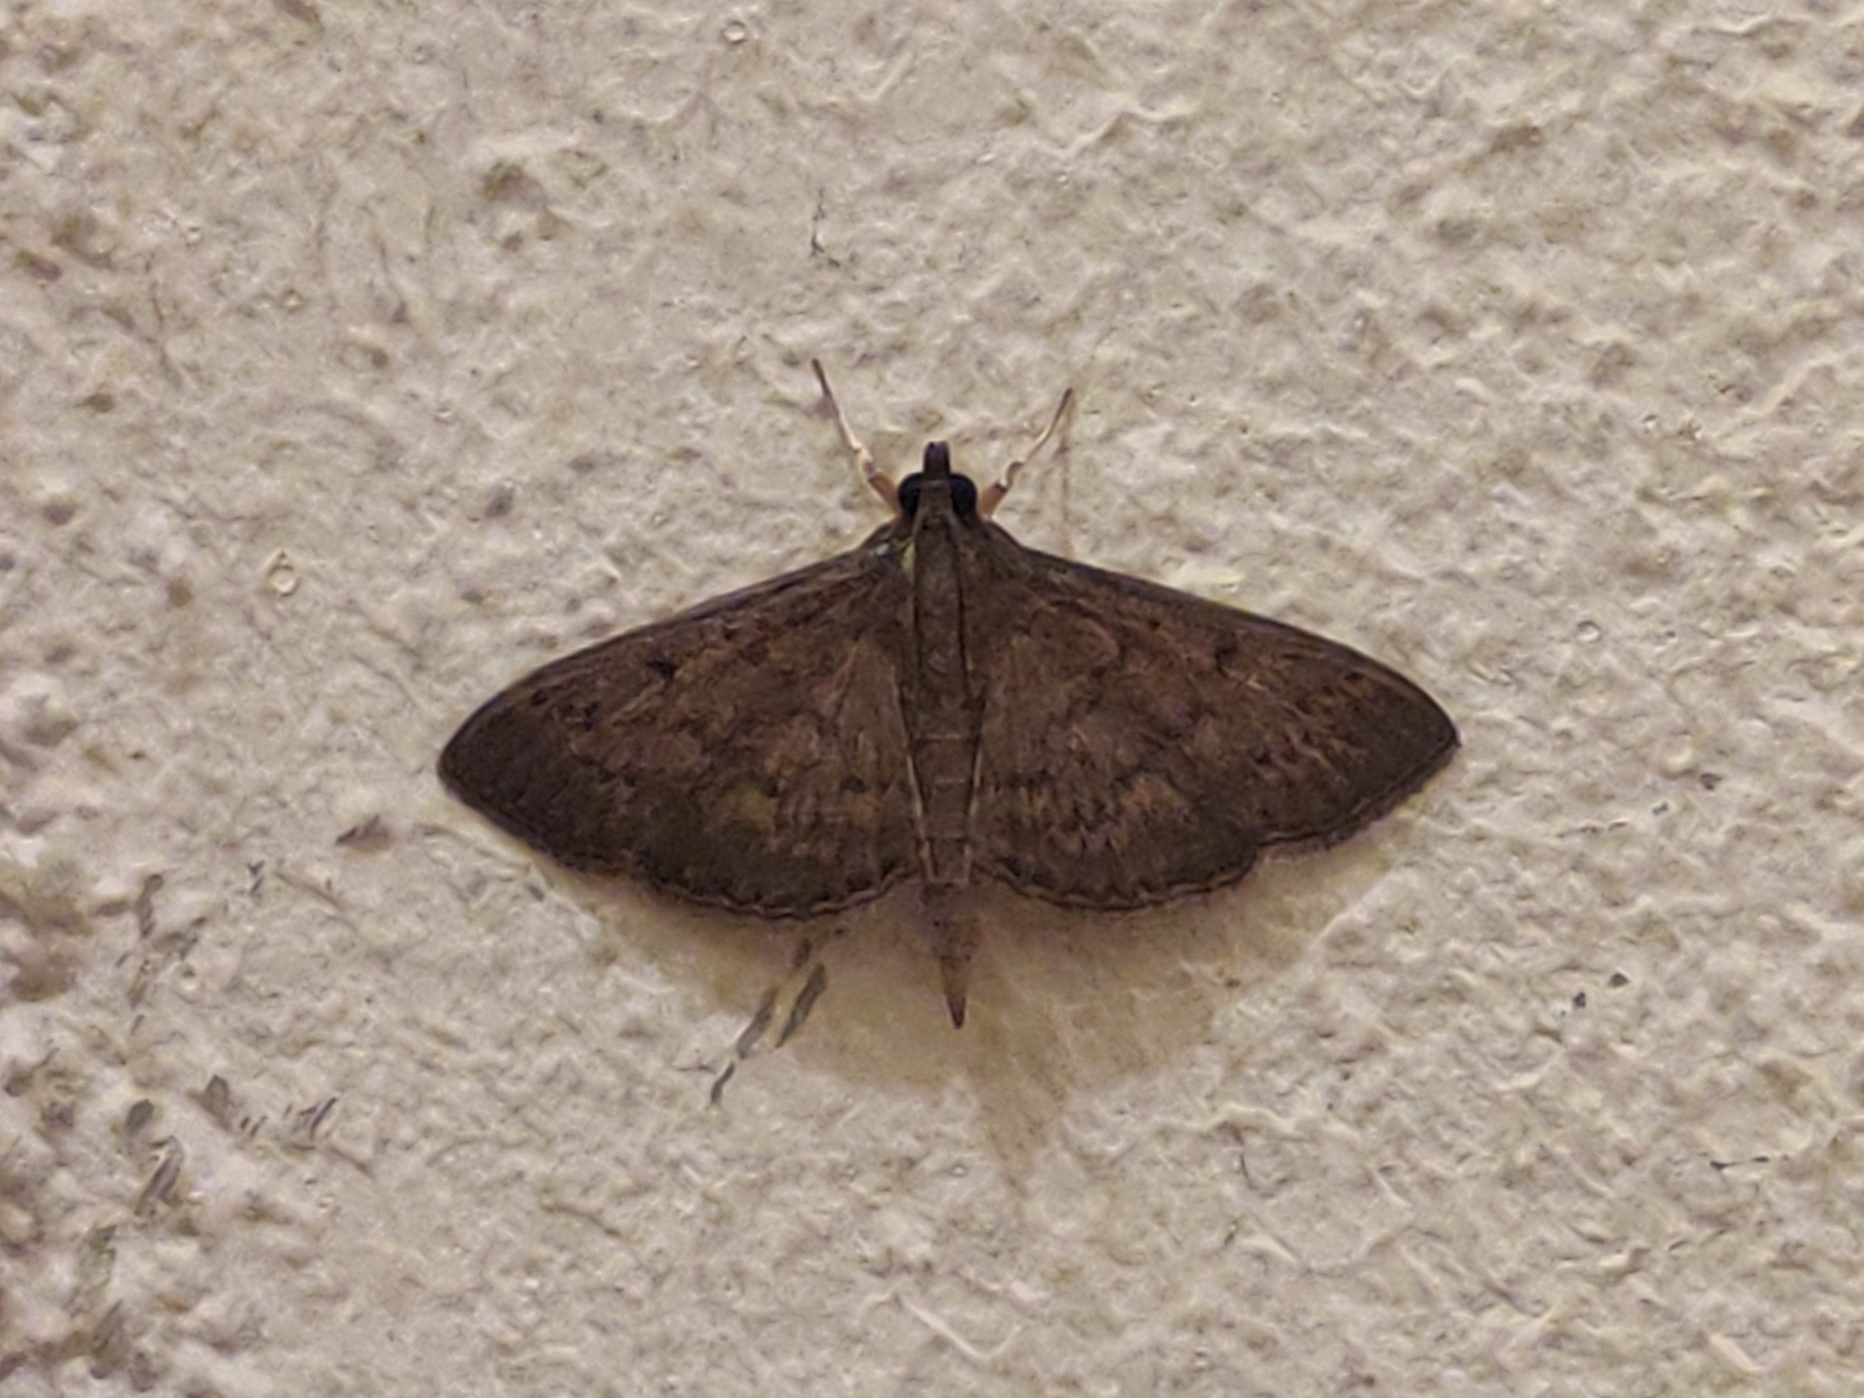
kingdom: Animalia
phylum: Arthropoda
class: Insecta
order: Lepidoptera
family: Crambidae
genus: Herpetogramma
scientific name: Herpetogramma phaeopteralis
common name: Dusky herpetogramma moth
